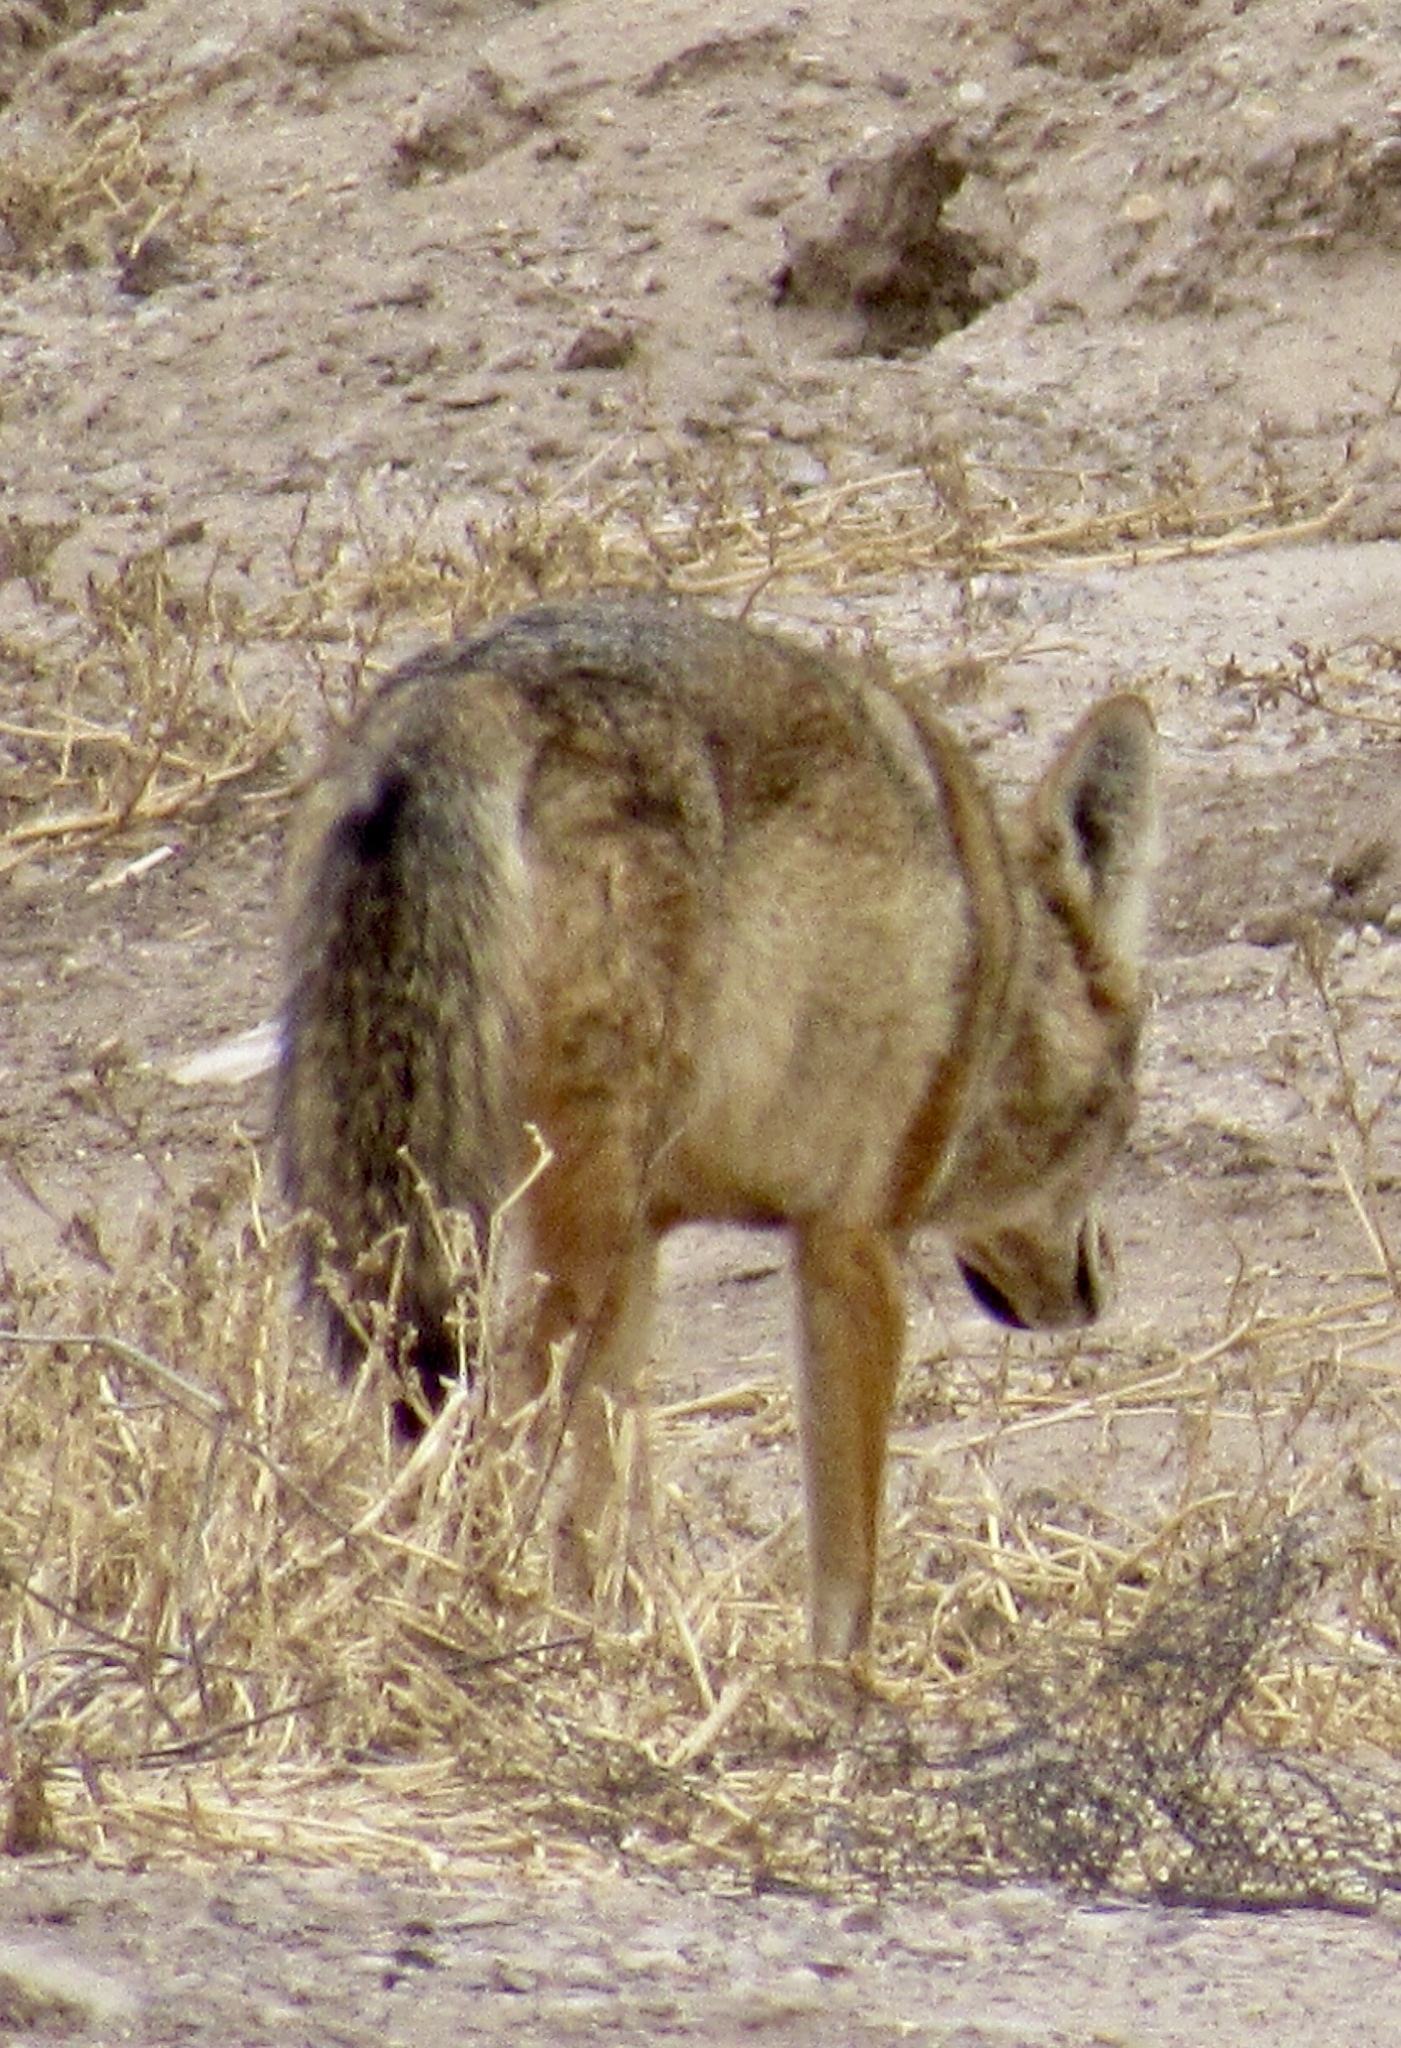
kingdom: Animalia
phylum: Chordata
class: Mammalia
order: Carnivora
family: Canidae
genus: Canis
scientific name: Canis latrans
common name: Coyote
